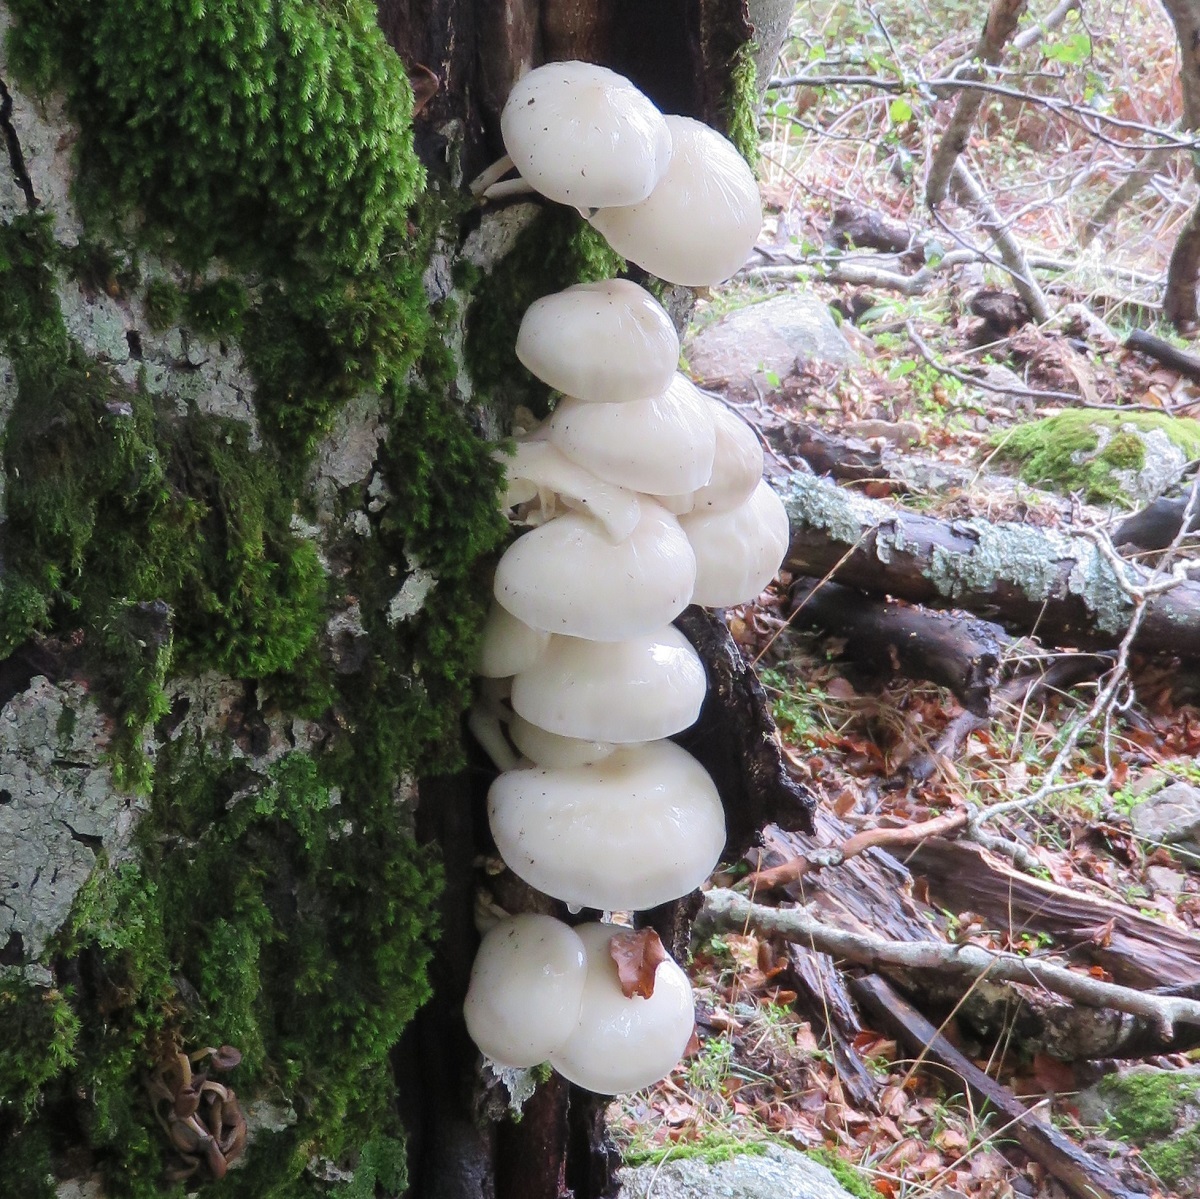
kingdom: Fungi
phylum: Basidiomycota
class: Agaricomycetes
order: Agaricales
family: Physalacriaceae
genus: Mucidula
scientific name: Mucidula mucida
